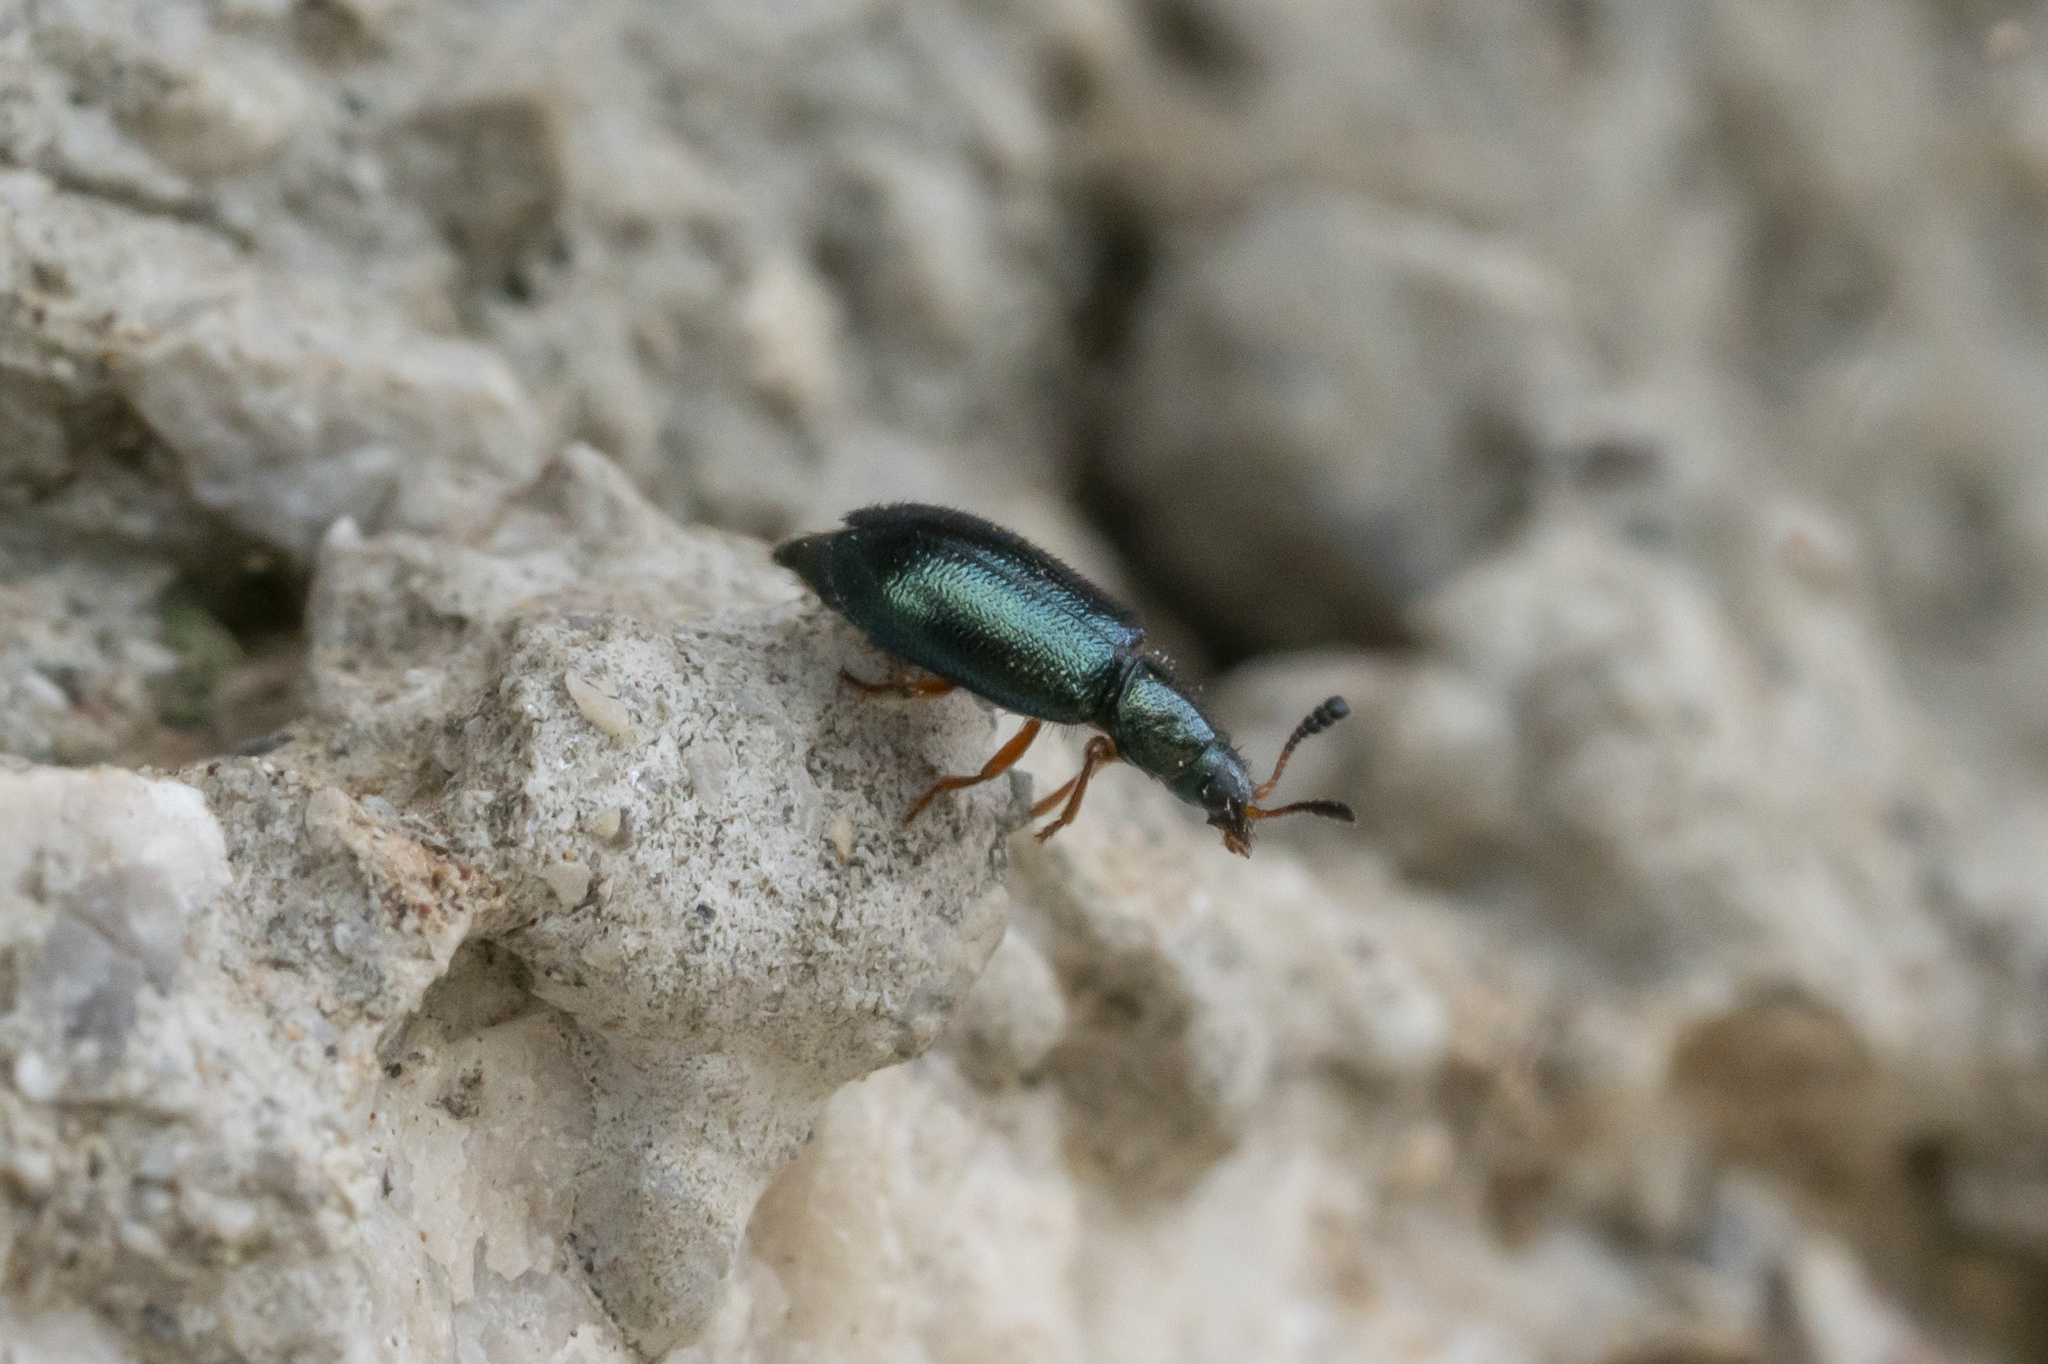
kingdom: Animalia
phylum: Arthropoda
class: Insecta
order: Coleoptera
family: Cleridae
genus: Necrobia
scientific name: Necrobia rufipes
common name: Red-legged ham beetle
